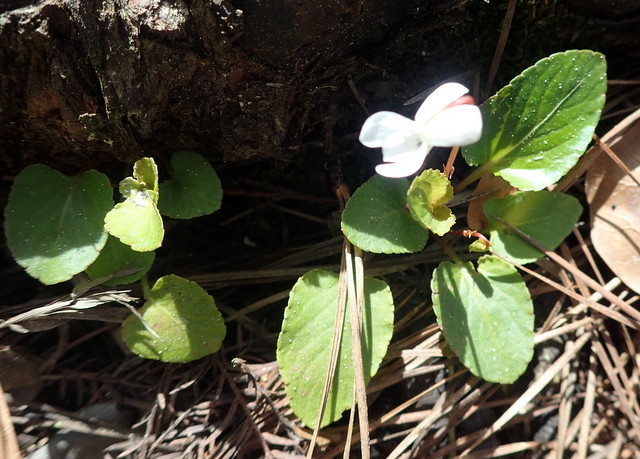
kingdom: Plantae
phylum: Tracheophyta
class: Magnoliopsida
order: Malpighiales
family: Violaceae
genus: Viola
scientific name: Viola primulifolia
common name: Primrose-leaf violet
